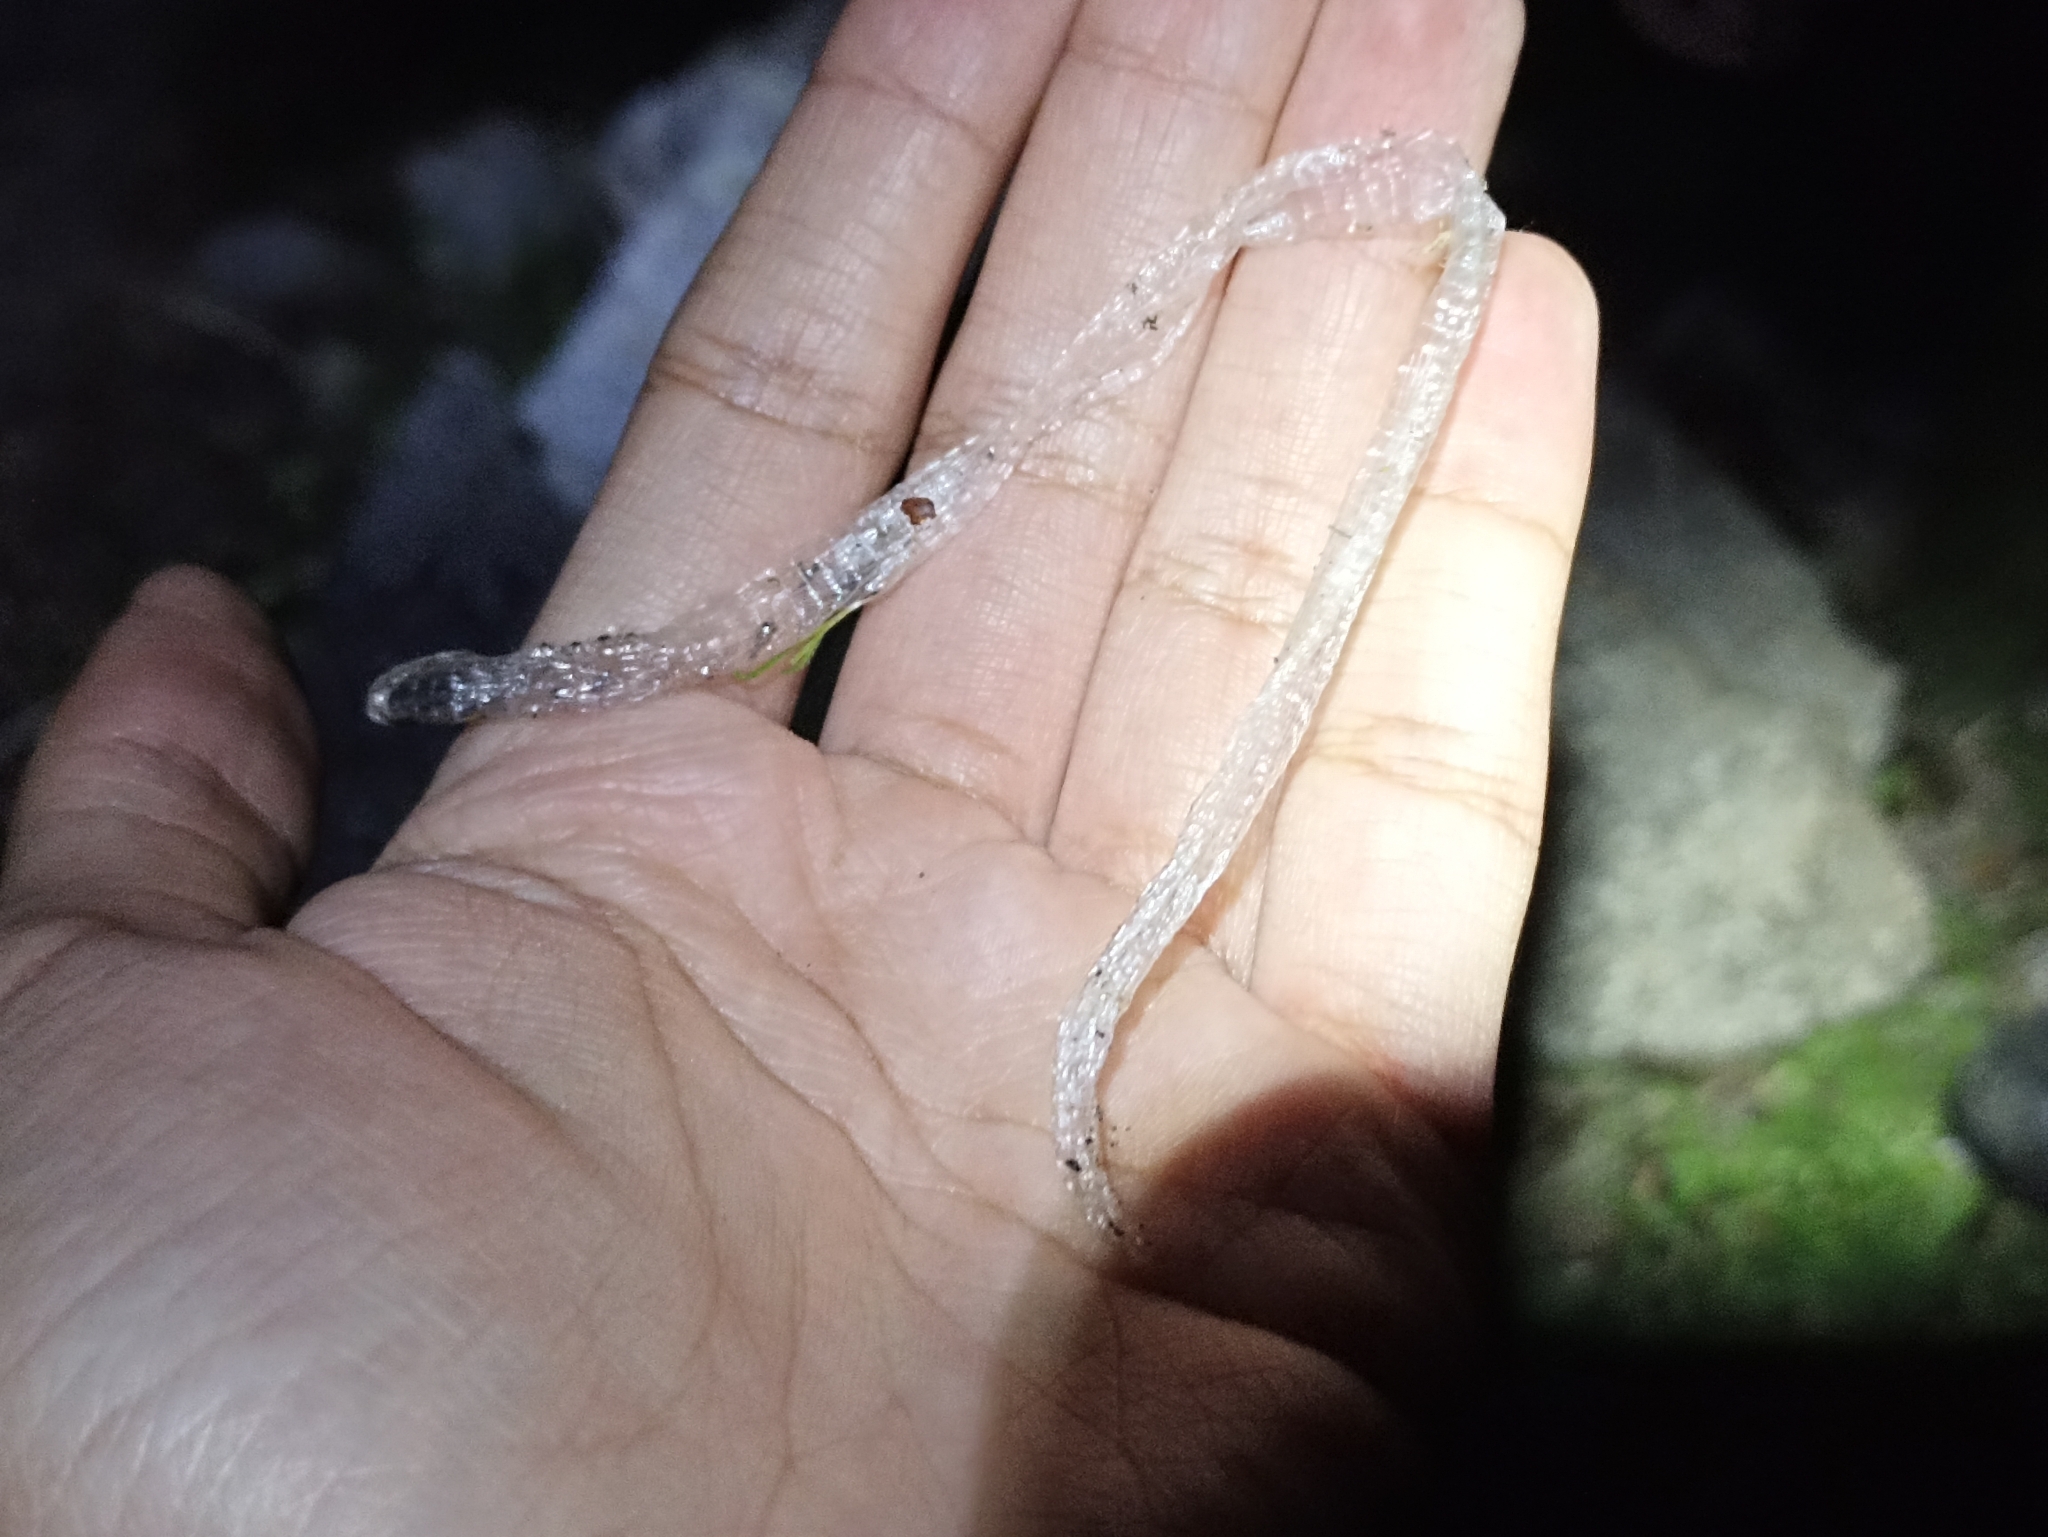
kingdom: Animalia
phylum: Chordata
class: Squamata
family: Blanidae
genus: Blanus
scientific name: Blanus vandellii
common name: Vandelli's worm lizard
